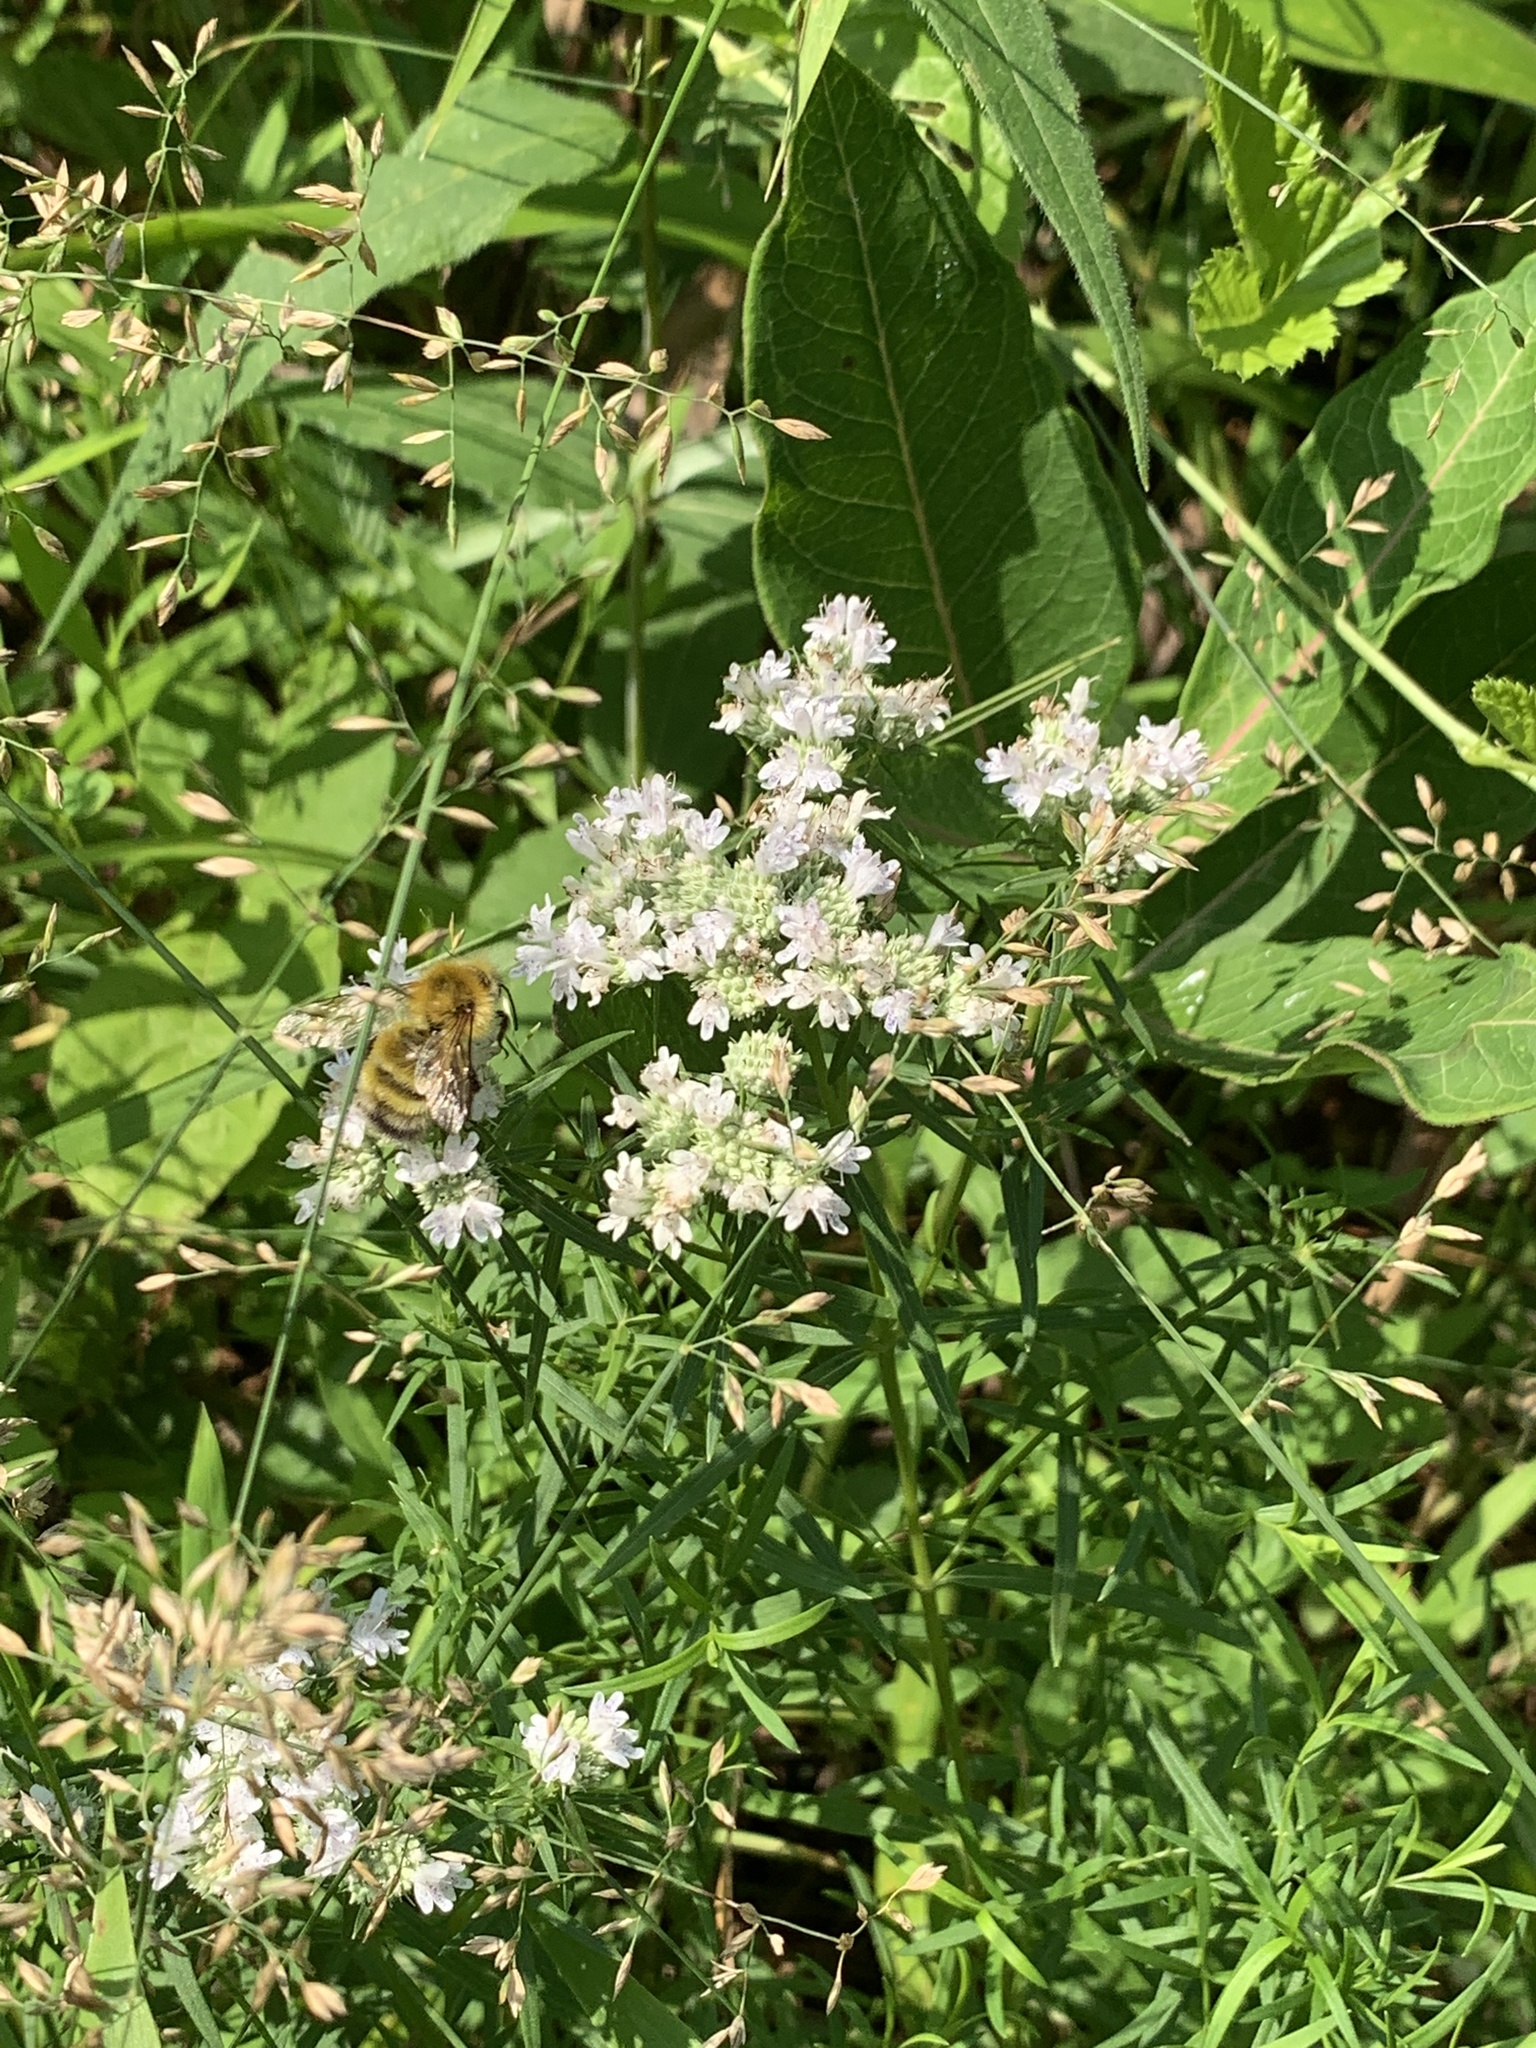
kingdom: Plantae
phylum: Tracheophyta
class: Magnoliopsida
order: Lamiales
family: Lamiaceae
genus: Pycnanthemum
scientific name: Pycnanthemum tenuifolium
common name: Narrow-leaf mountain-mint
